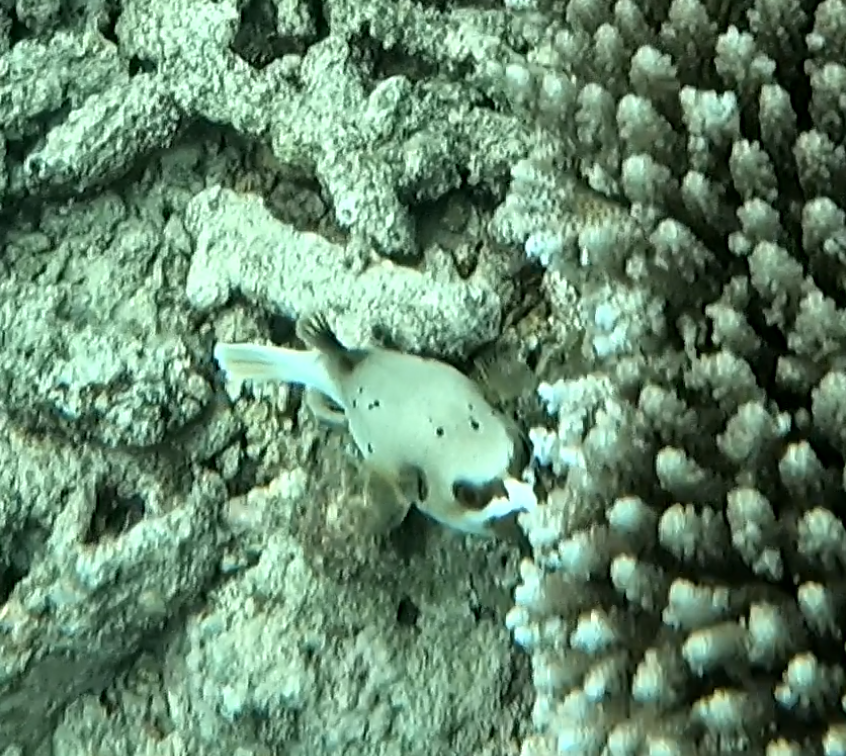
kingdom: Animalia
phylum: Chordata
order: Tetraodontiformes
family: Tetraodontidae
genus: Arothron
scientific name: Arothron nigropunctatus
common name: Black spotted blow fish
